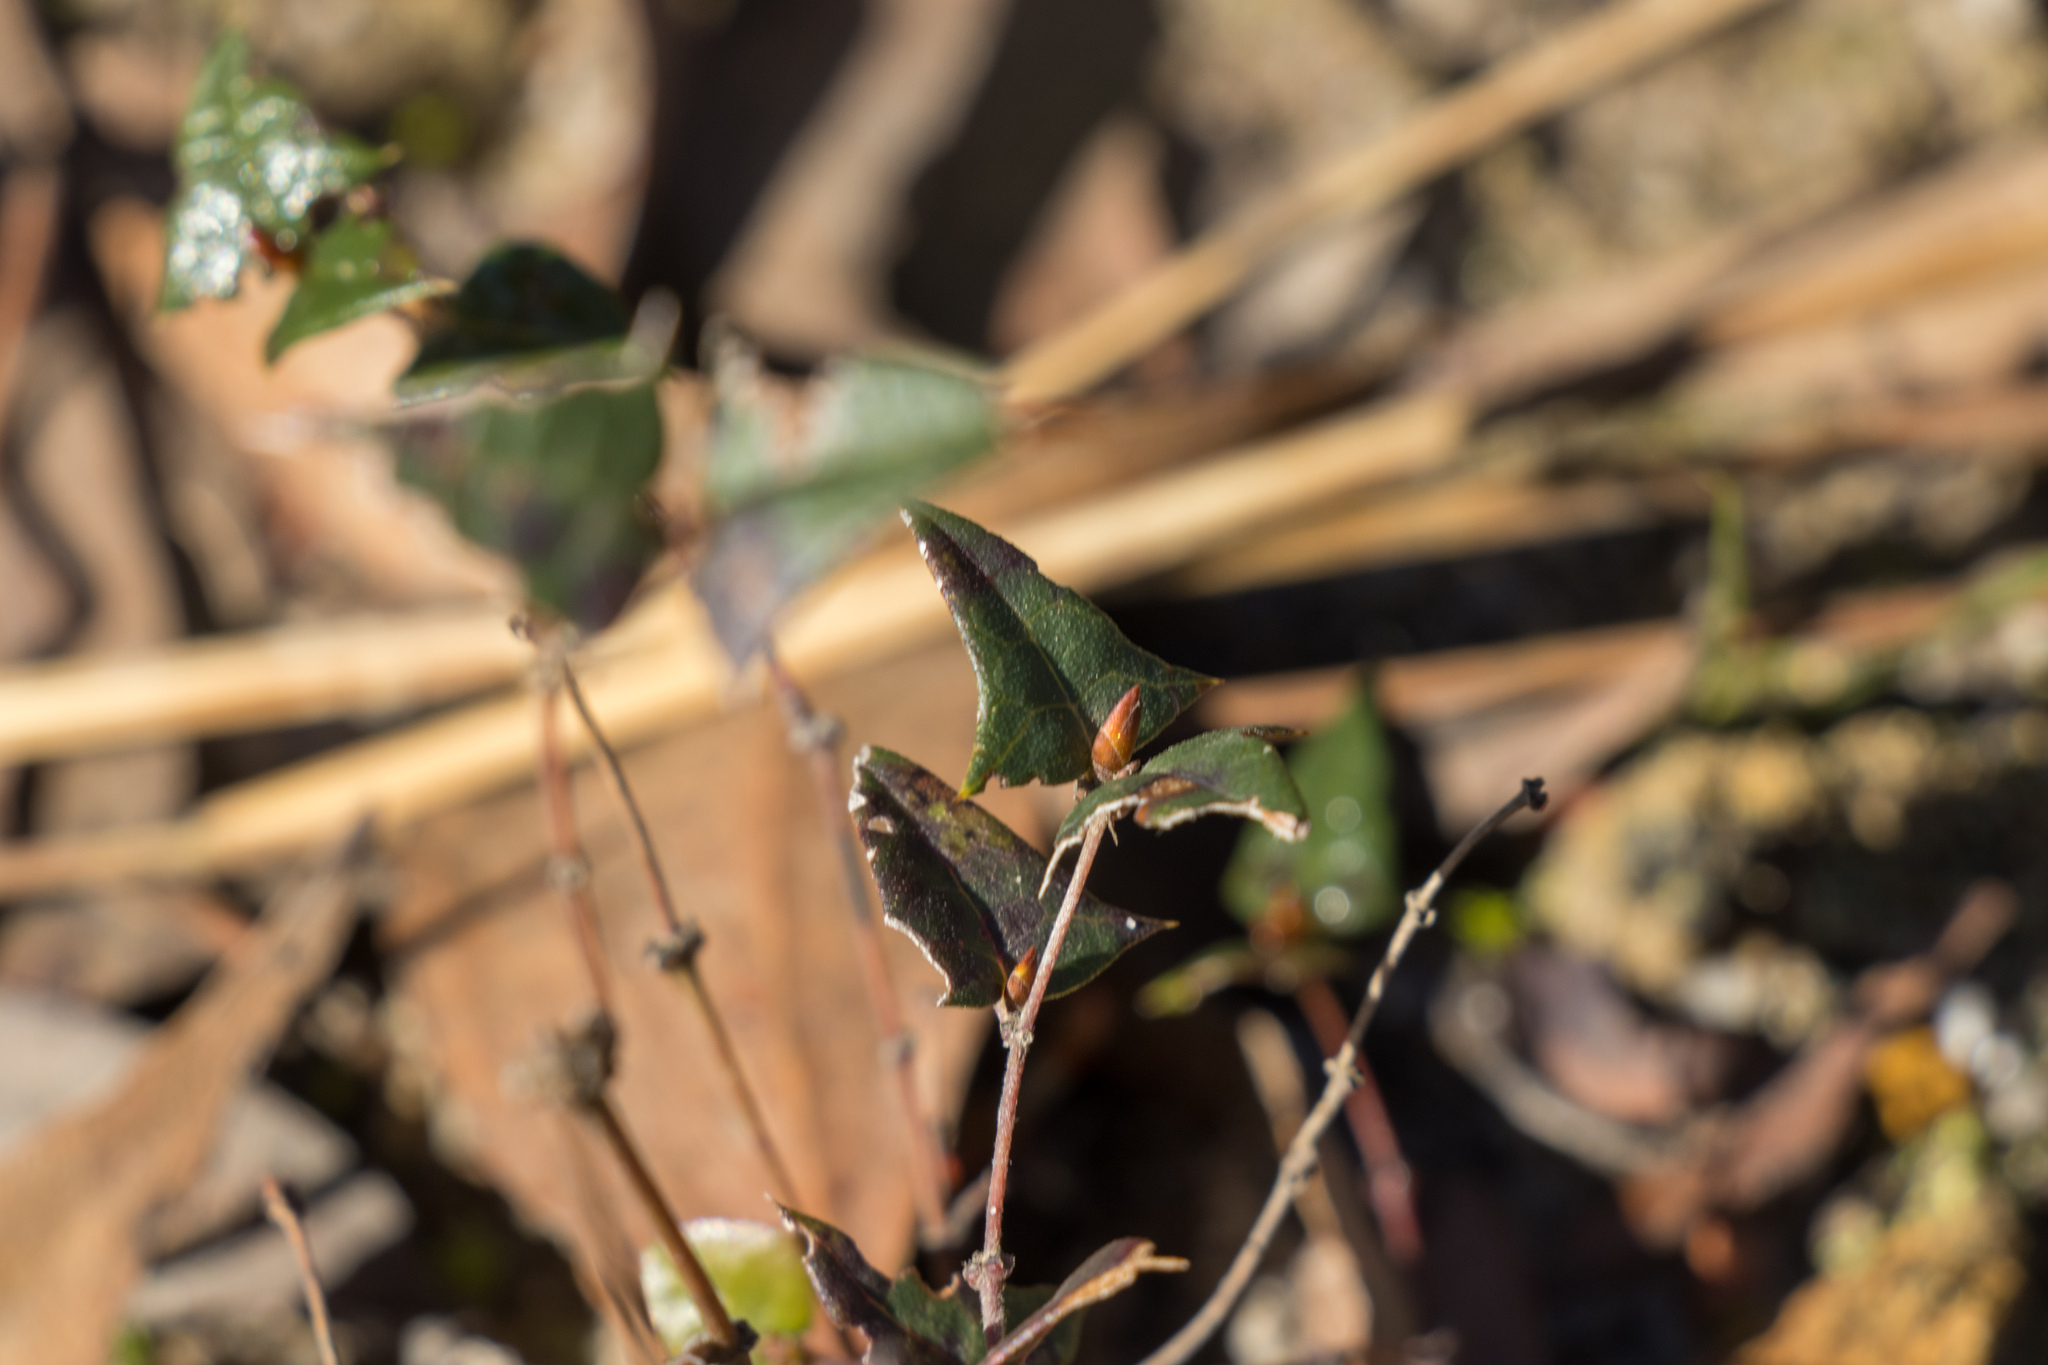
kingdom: Plantae
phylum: Tracheophyta
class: Magnoliopsida
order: Fabales
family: Fabaceae
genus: Platylobium
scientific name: Platylobium obtusangulum
